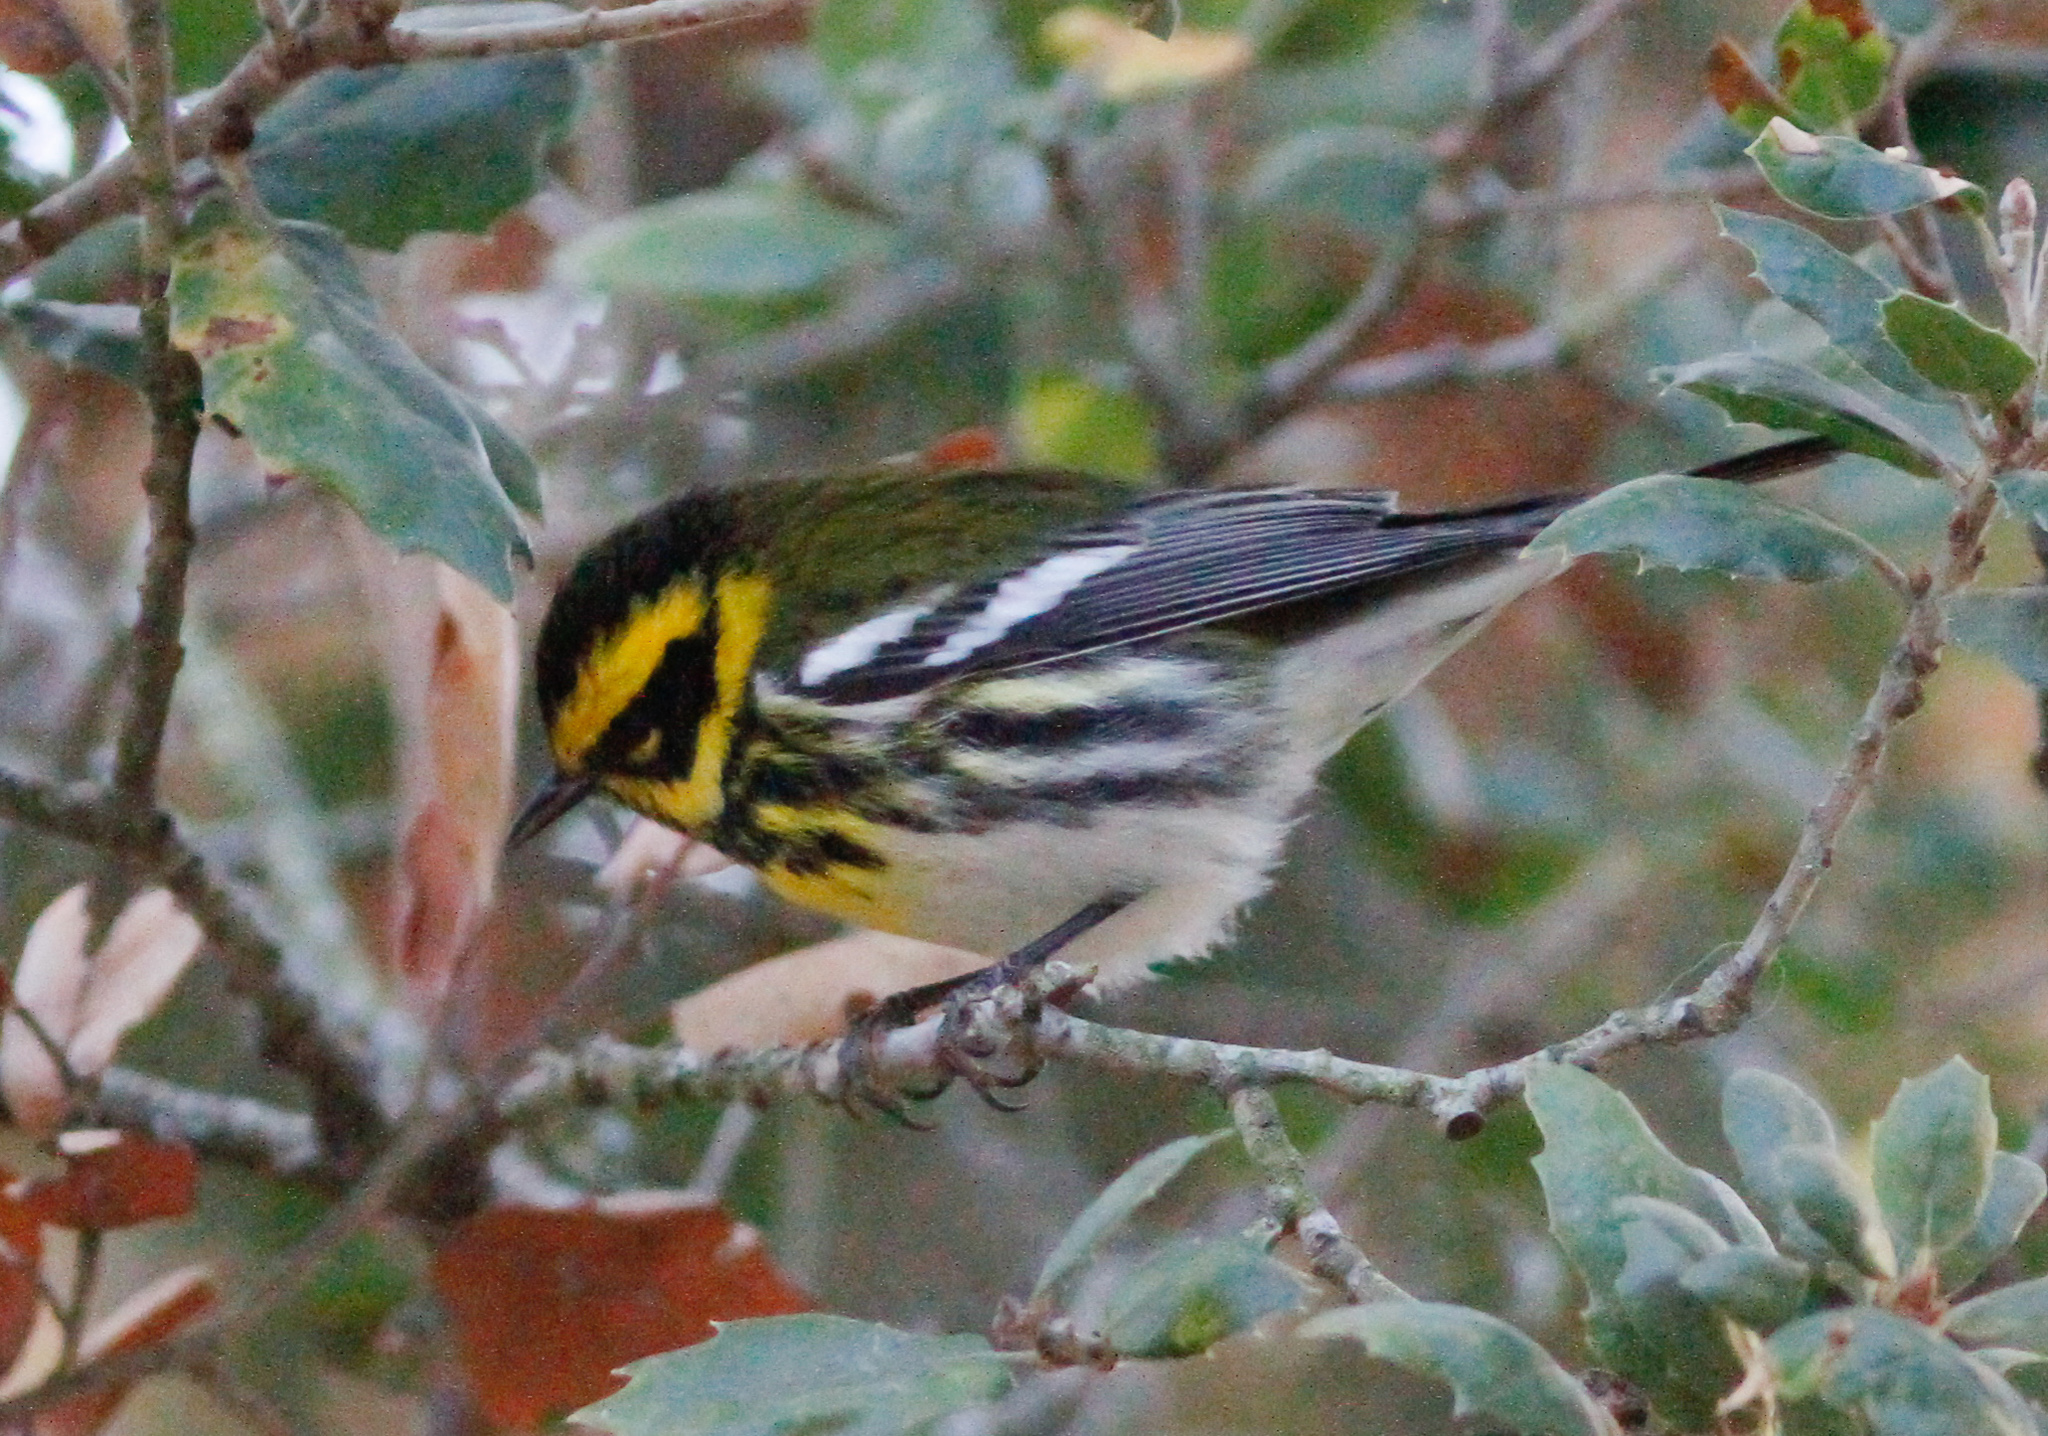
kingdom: Animalia
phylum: Chordata
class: Aves
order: Passeriformes
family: Parulidae
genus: Setophaga
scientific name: Setophaga townsendi
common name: Townsend's warbler
